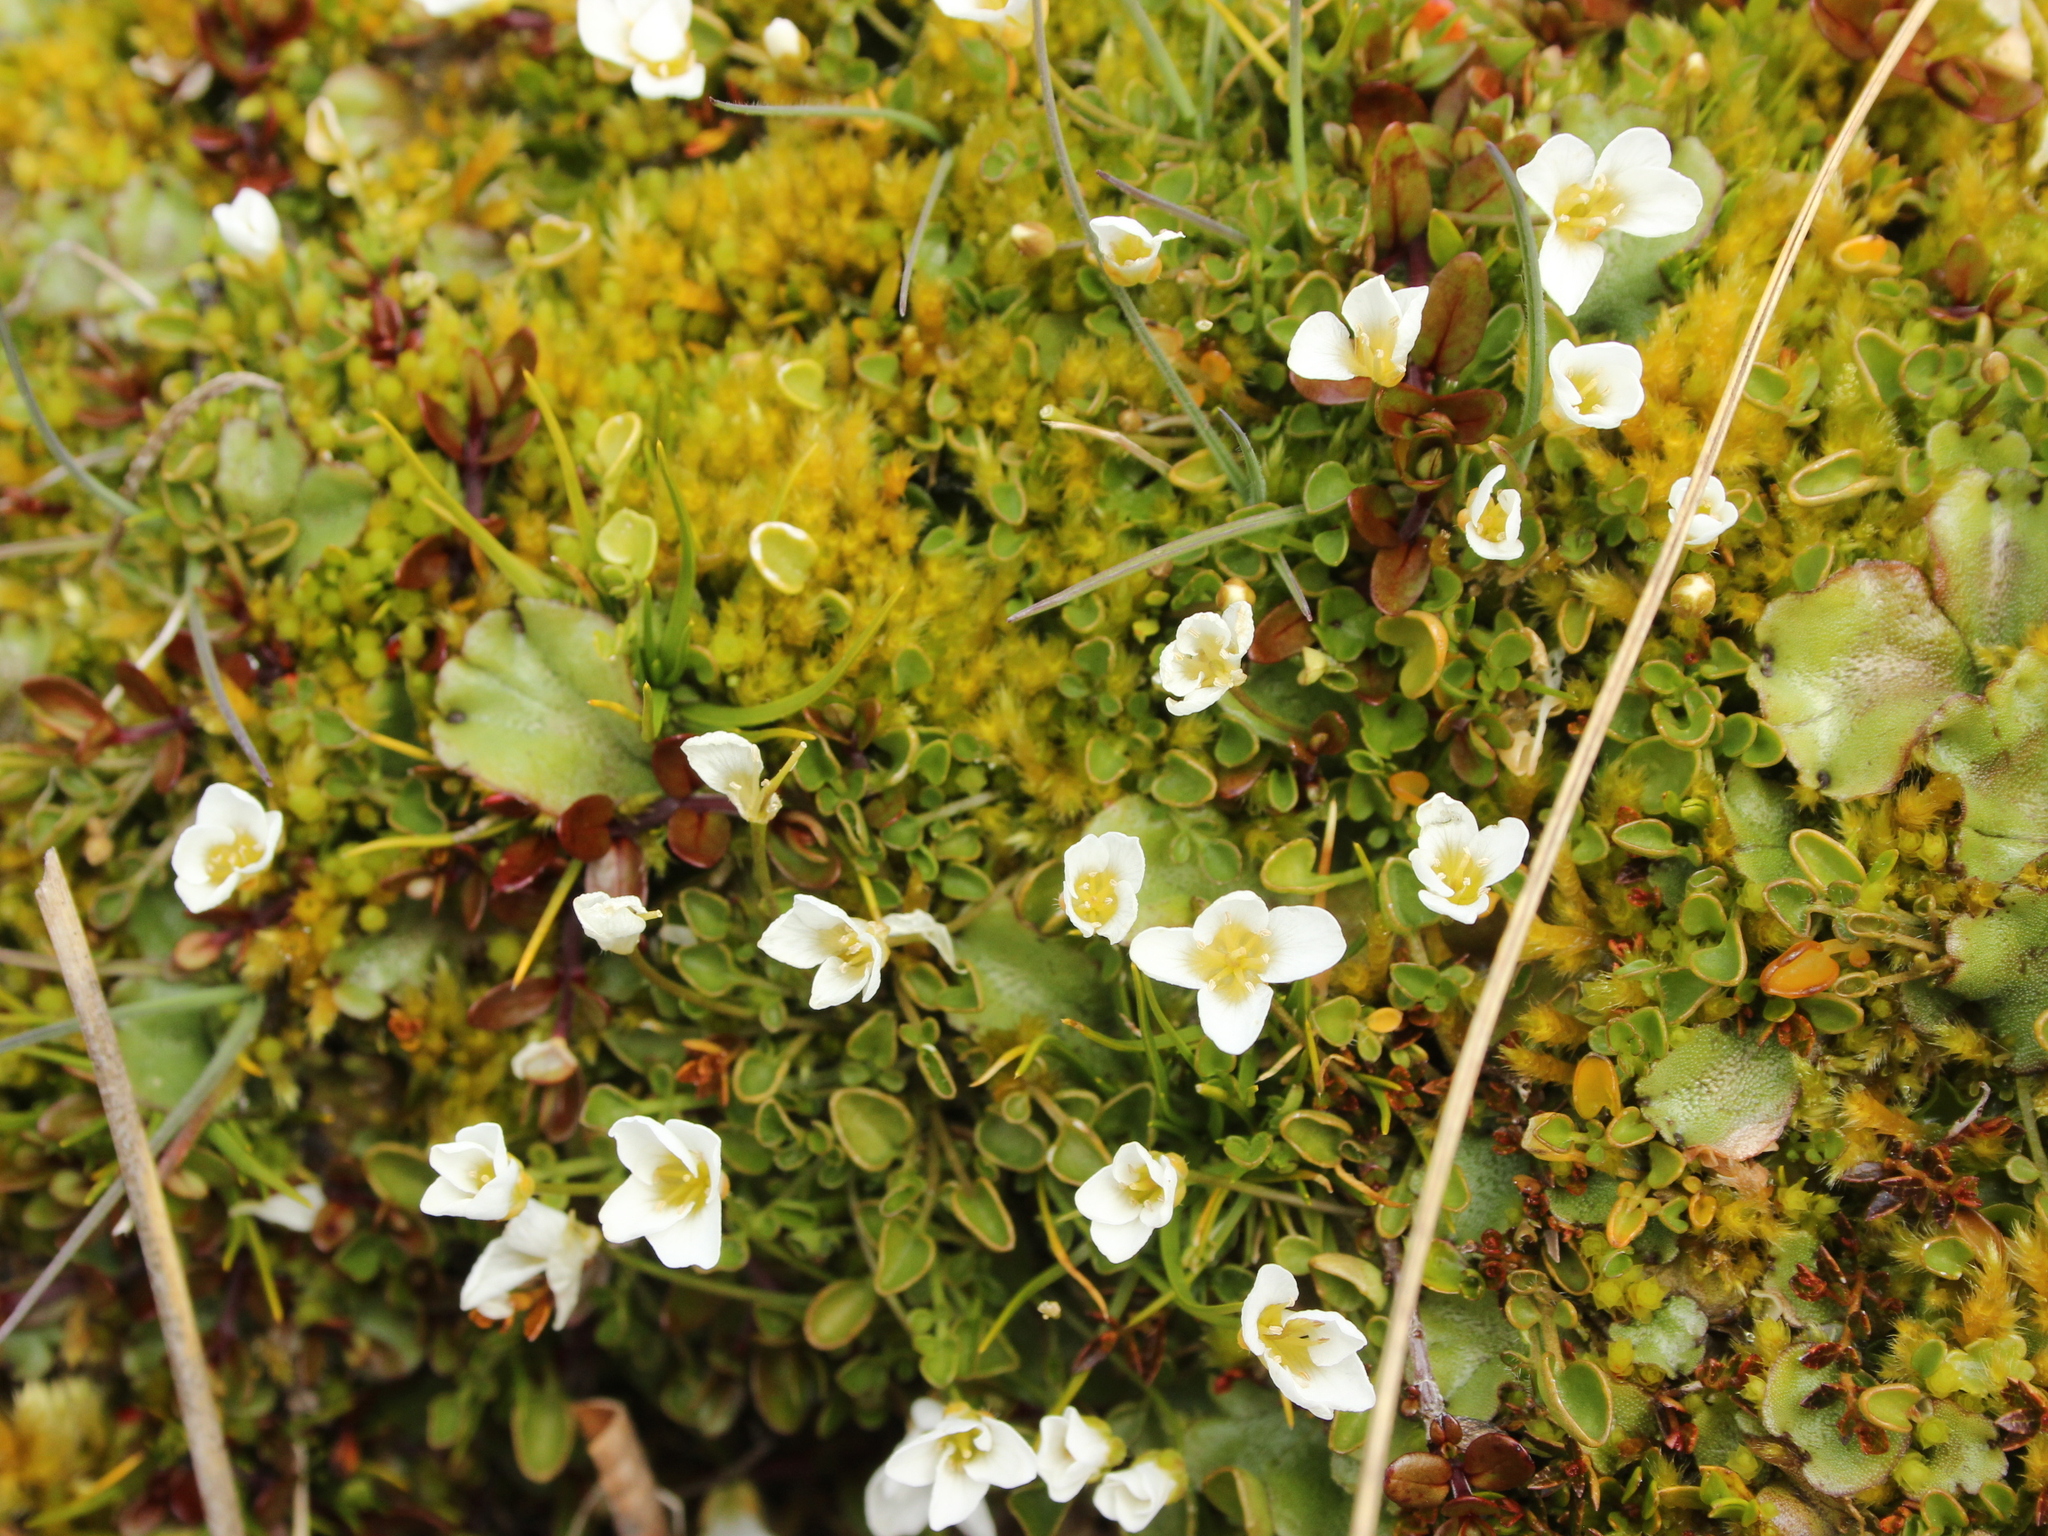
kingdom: Plantae
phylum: Tracheophyta
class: Magnoliopsida
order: Brassicales
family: Brassicaceae
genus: Cardamine
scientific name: Cardamine reptans
